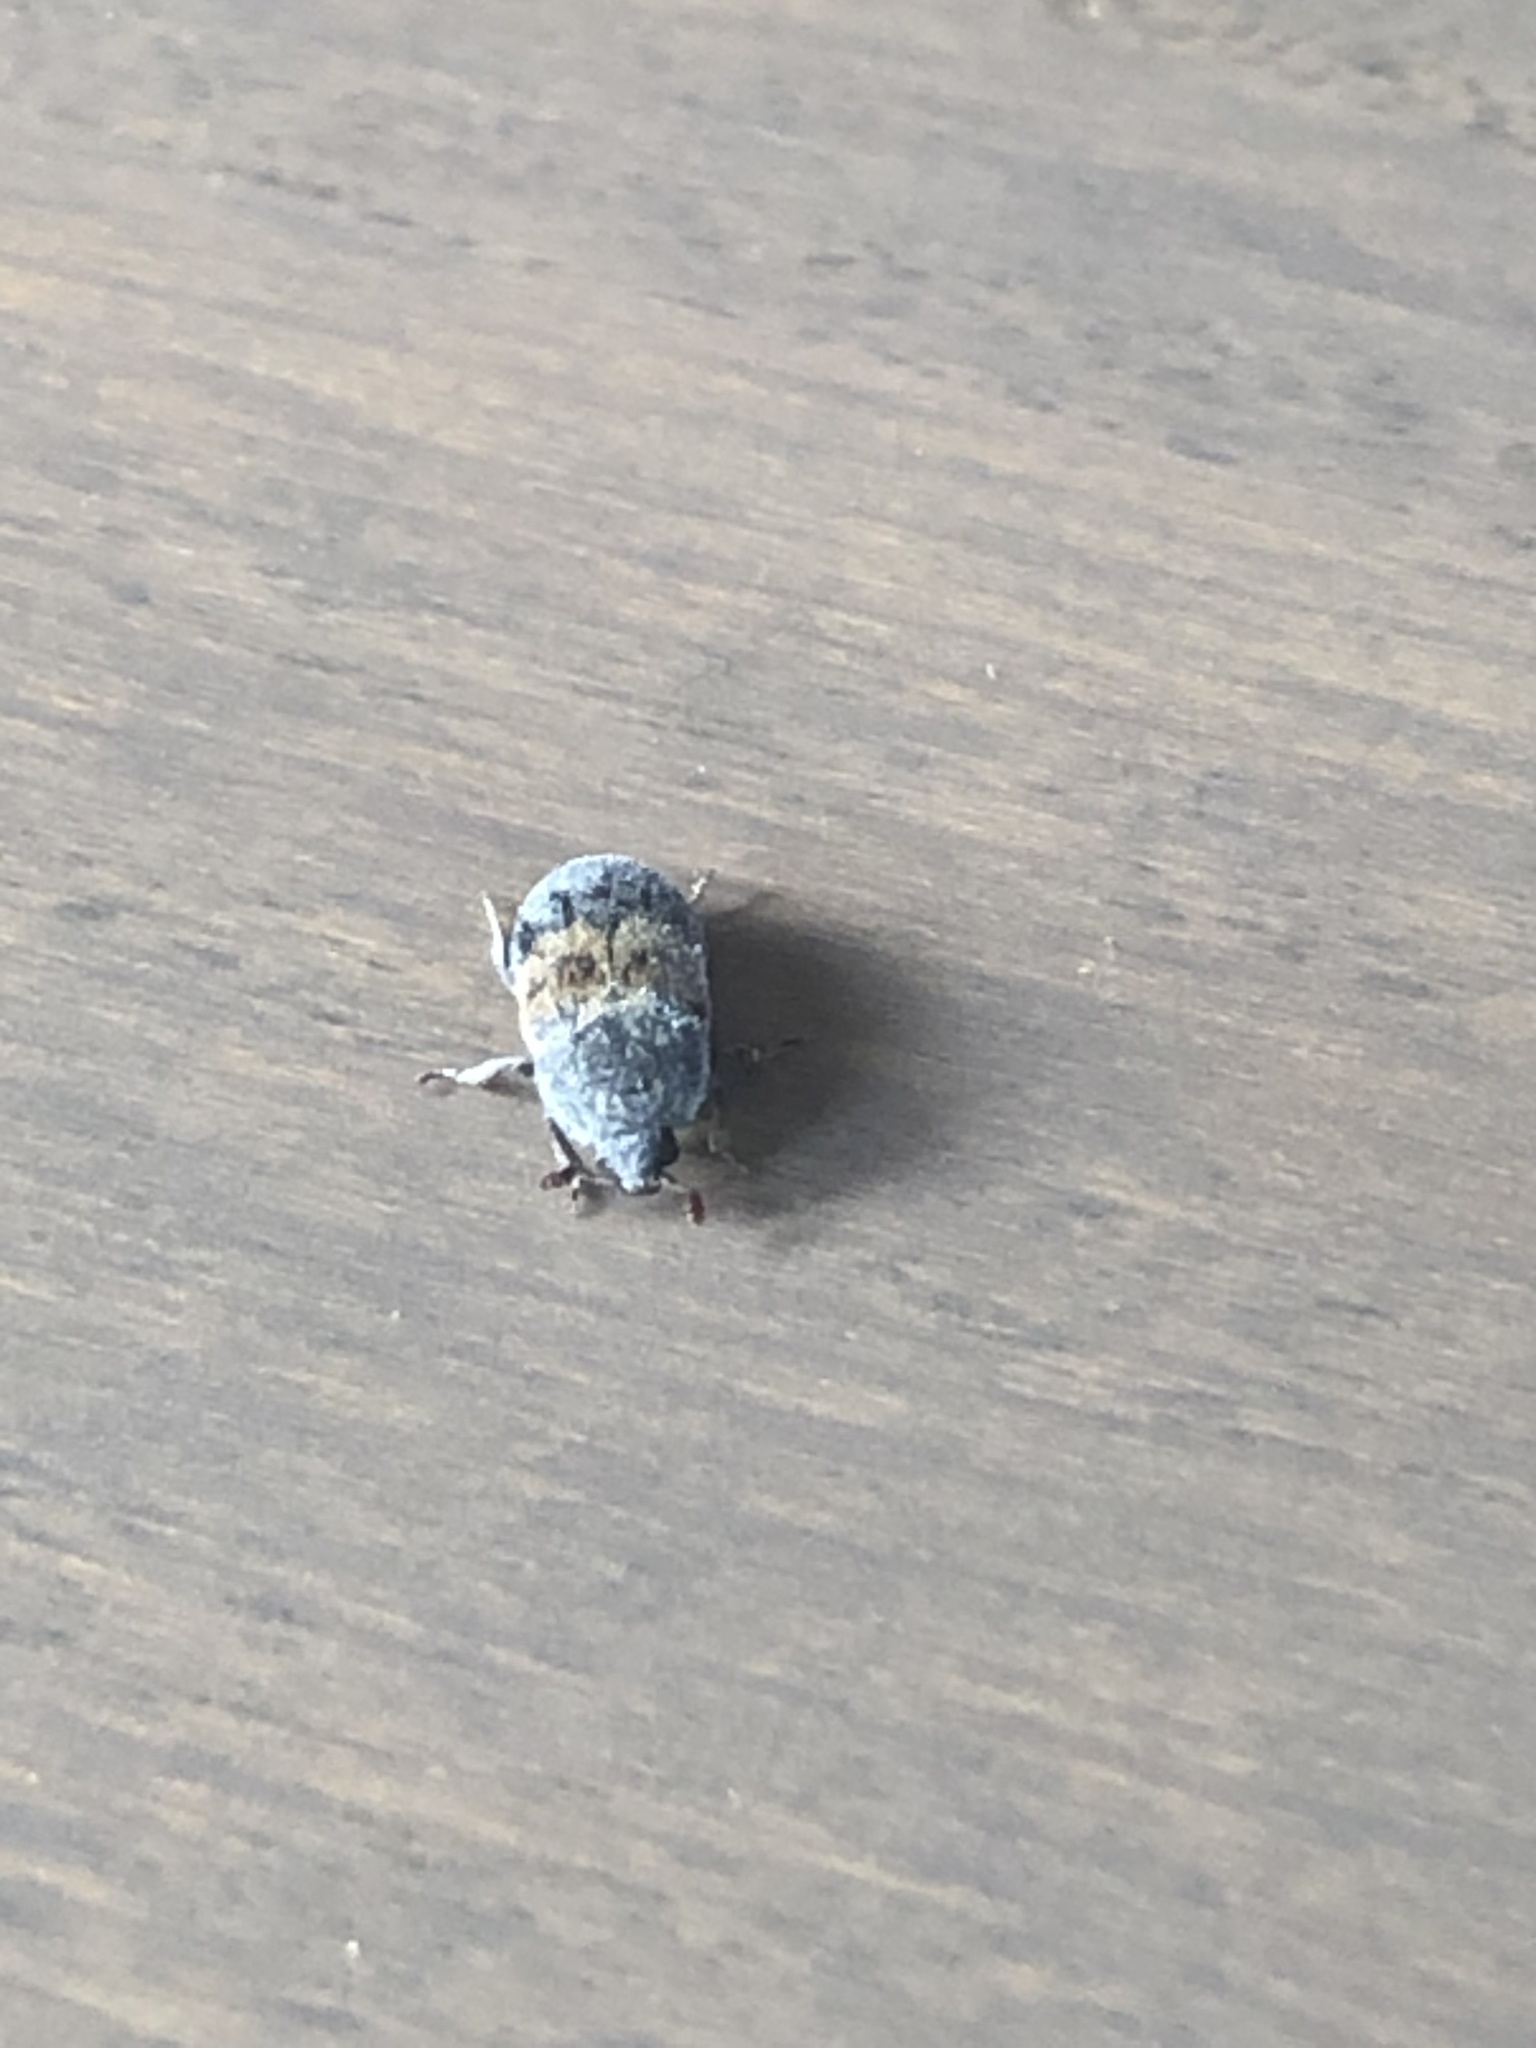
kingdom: Animalia
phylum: Arthropoda
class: Insecta
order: Coleoptera
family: Dermestidae
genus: Dermestes
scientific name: Dermestes lardarius
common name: Larder beetle
